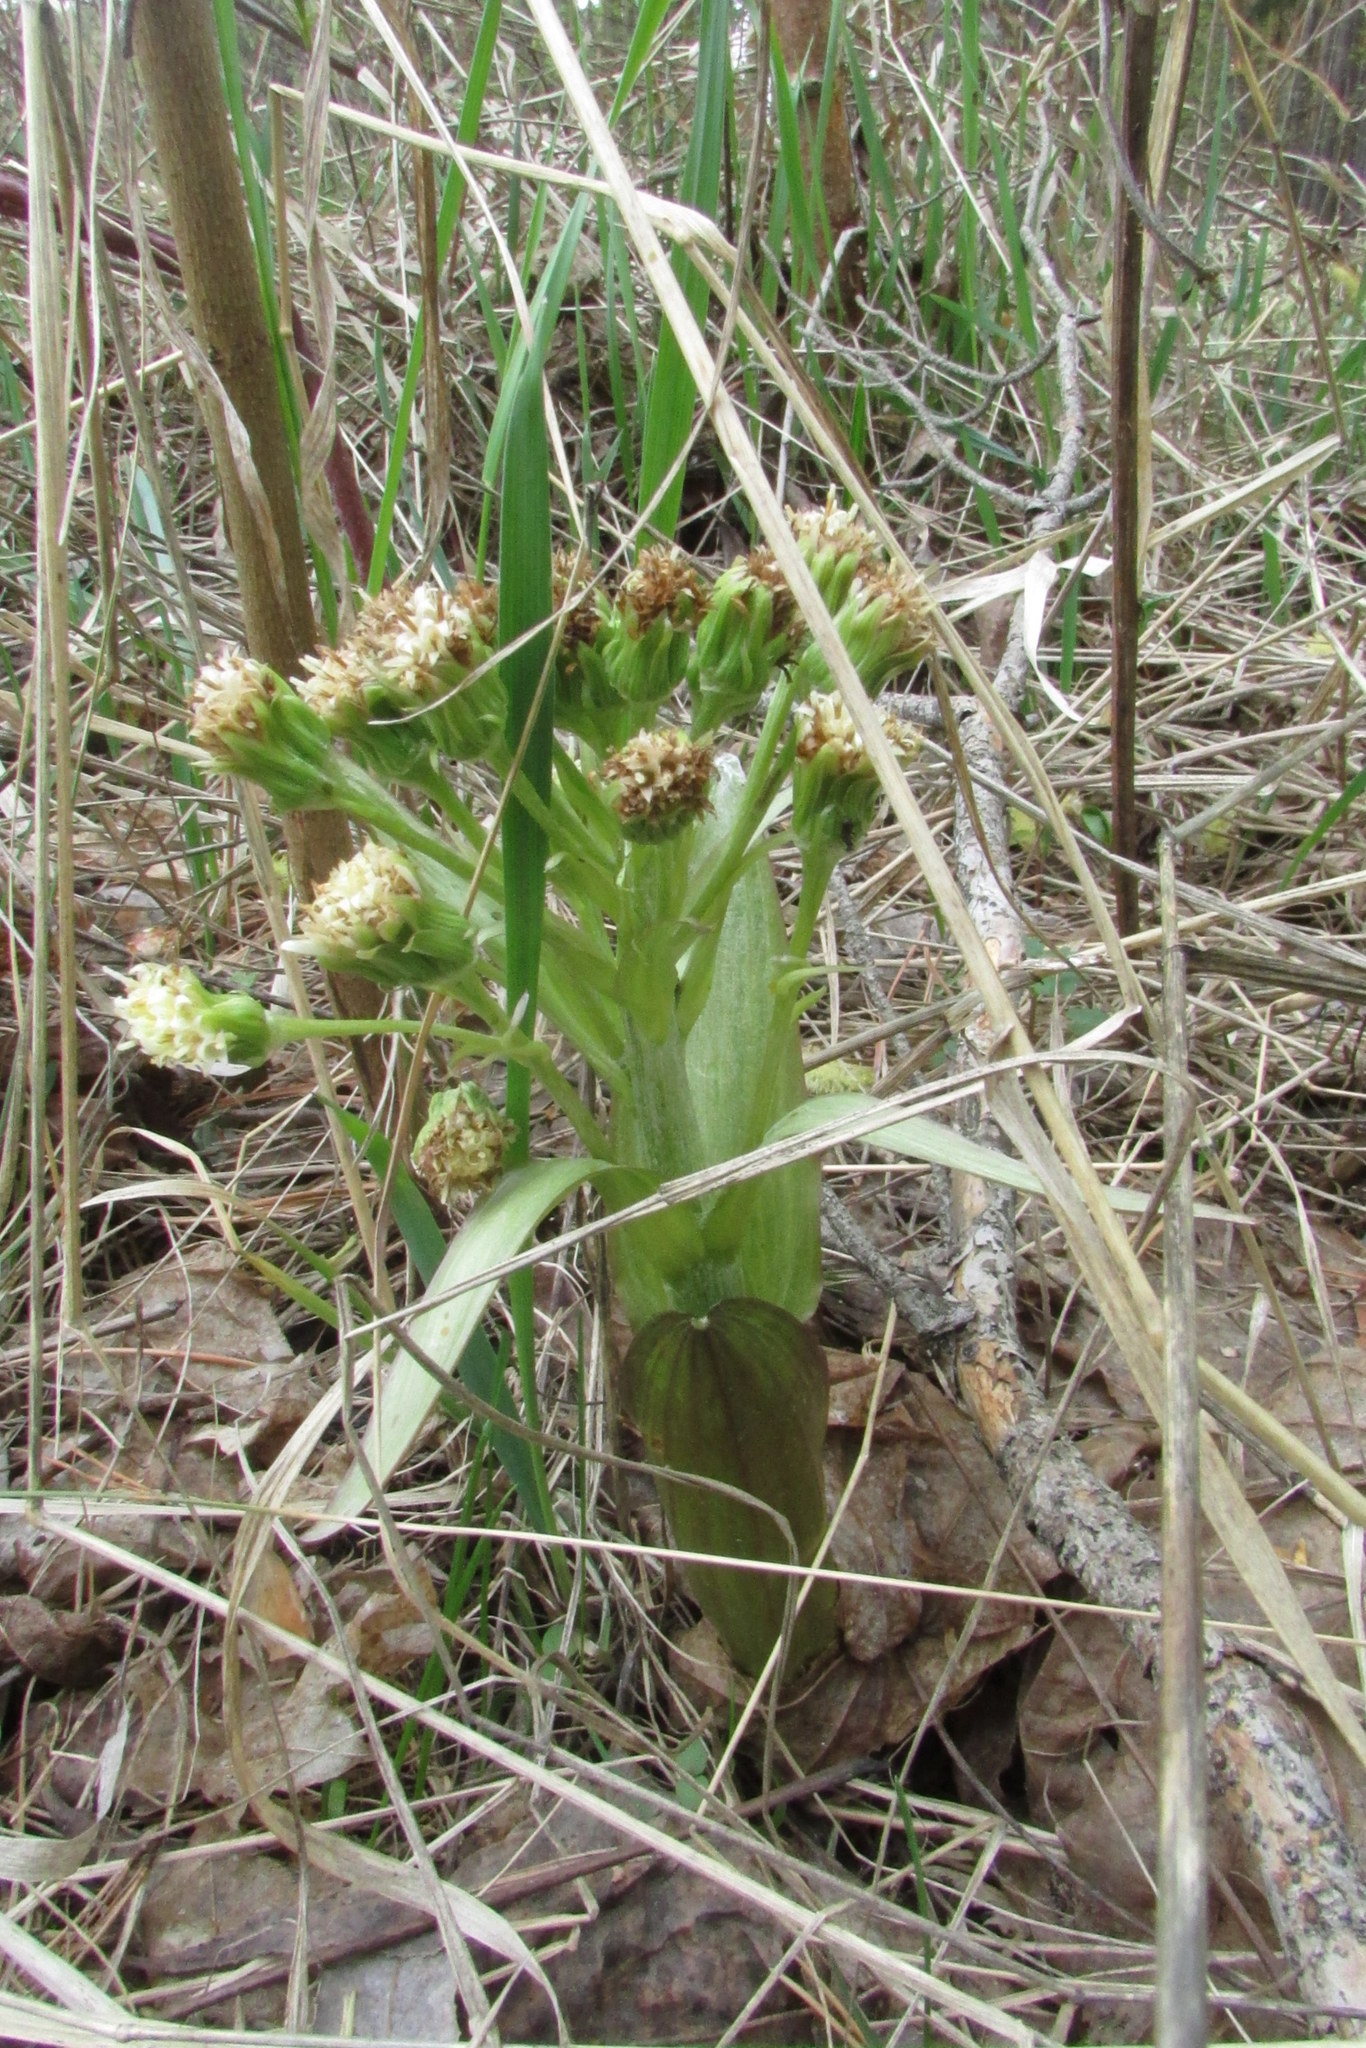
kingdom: Plantae
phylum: Tracheophyta
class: Magnoliopsida
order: Asterales
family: Asteraceae
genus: Petasites
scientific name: Petasites spurius
